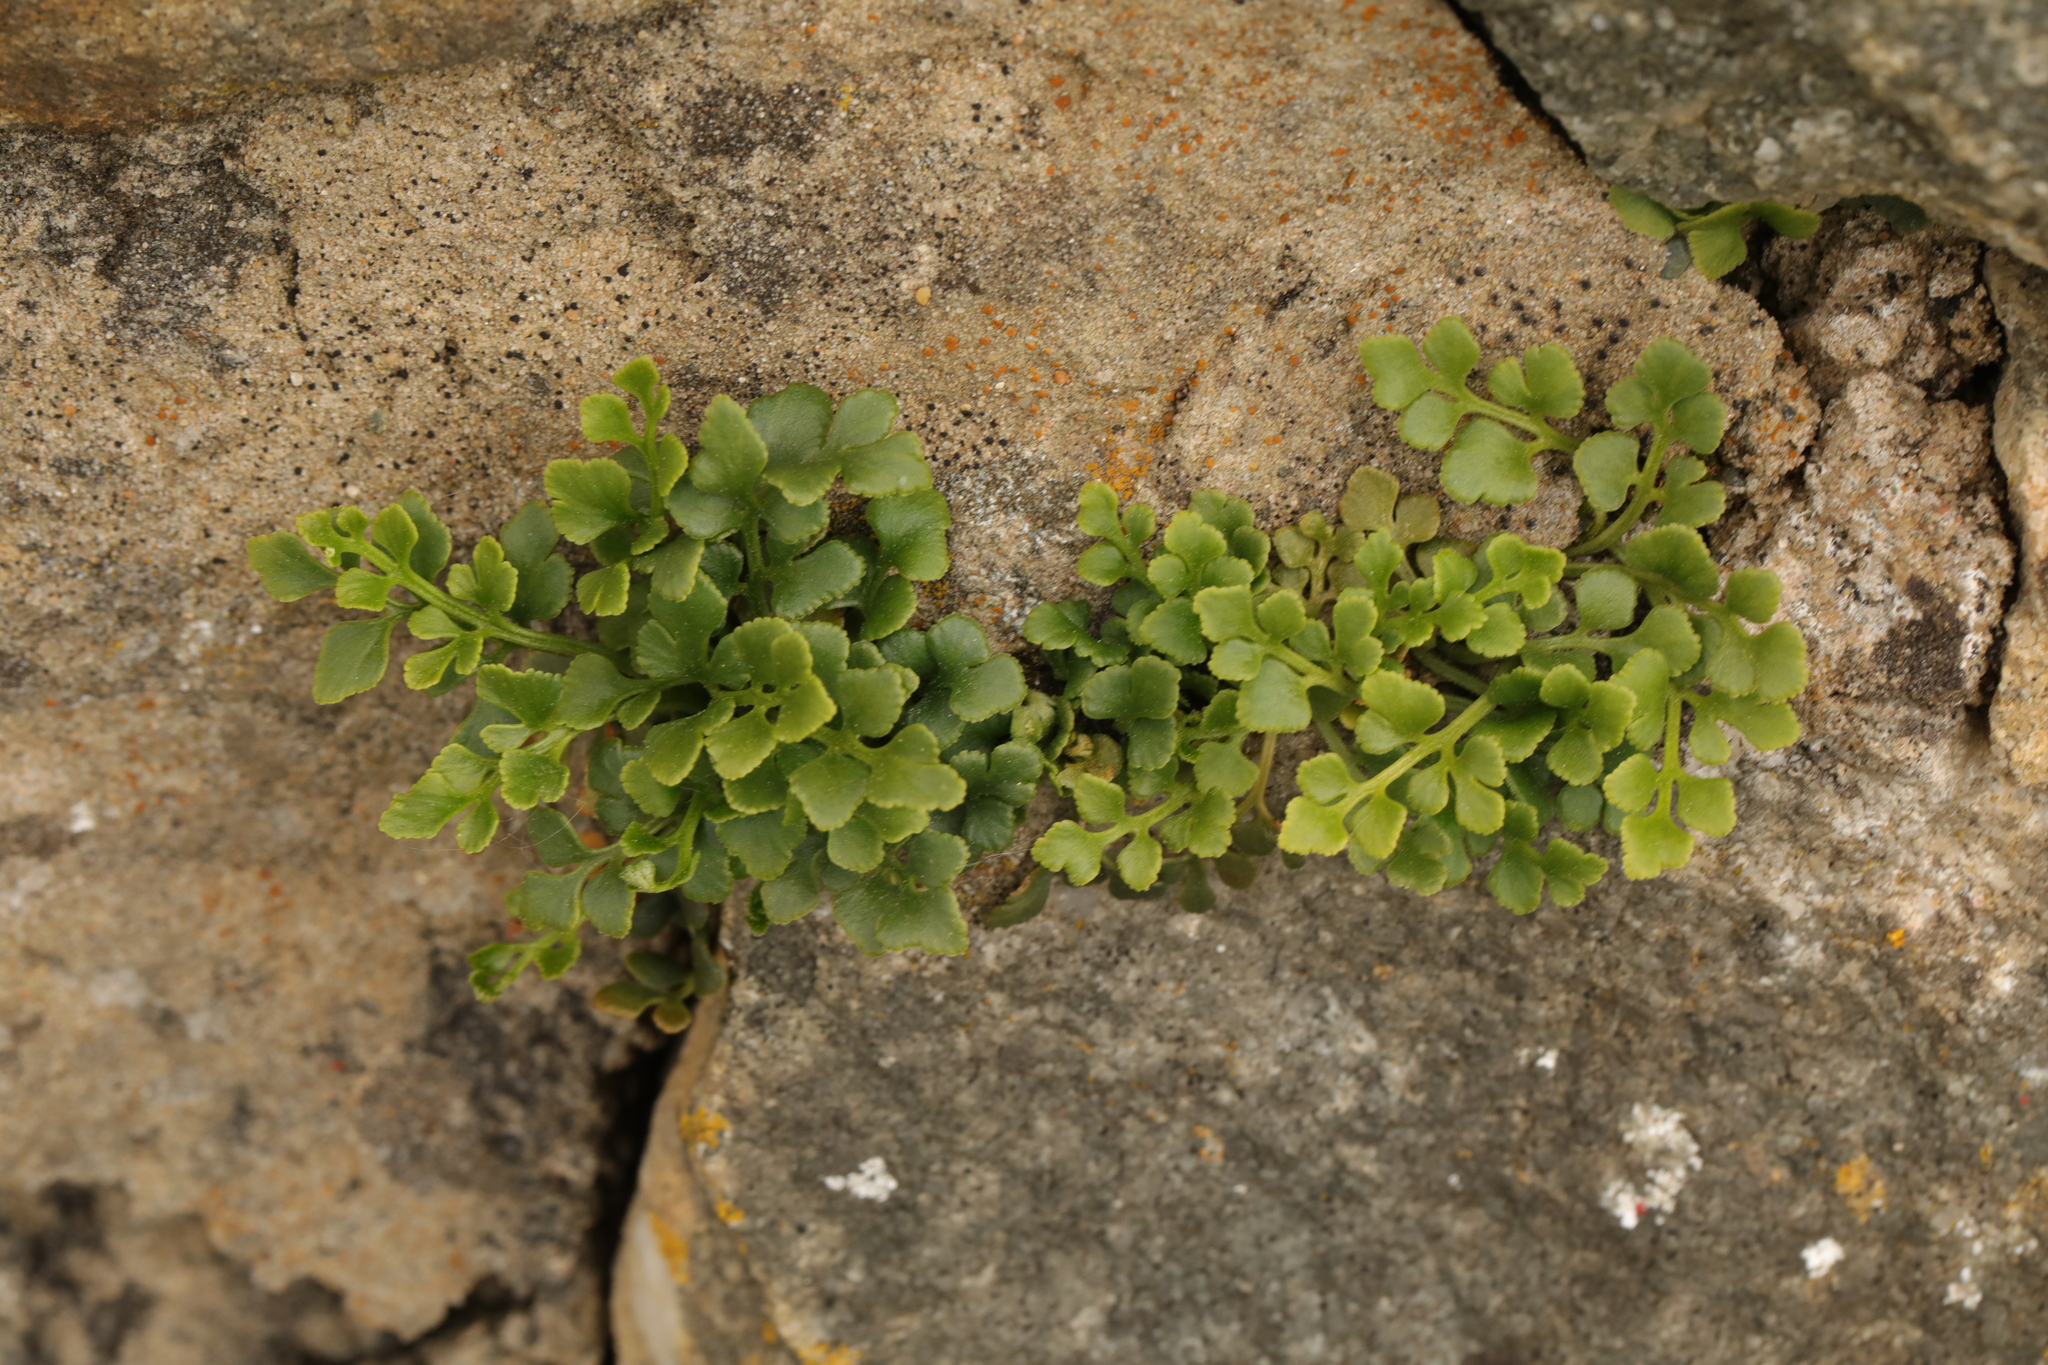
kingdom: Plantae
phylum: Tracheophyta
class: Polypodiopsida
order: Polypodiales
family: Aspleniaceae
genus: Asplenium
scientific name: Asplenium ruta-muraria
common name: Wall-rue
